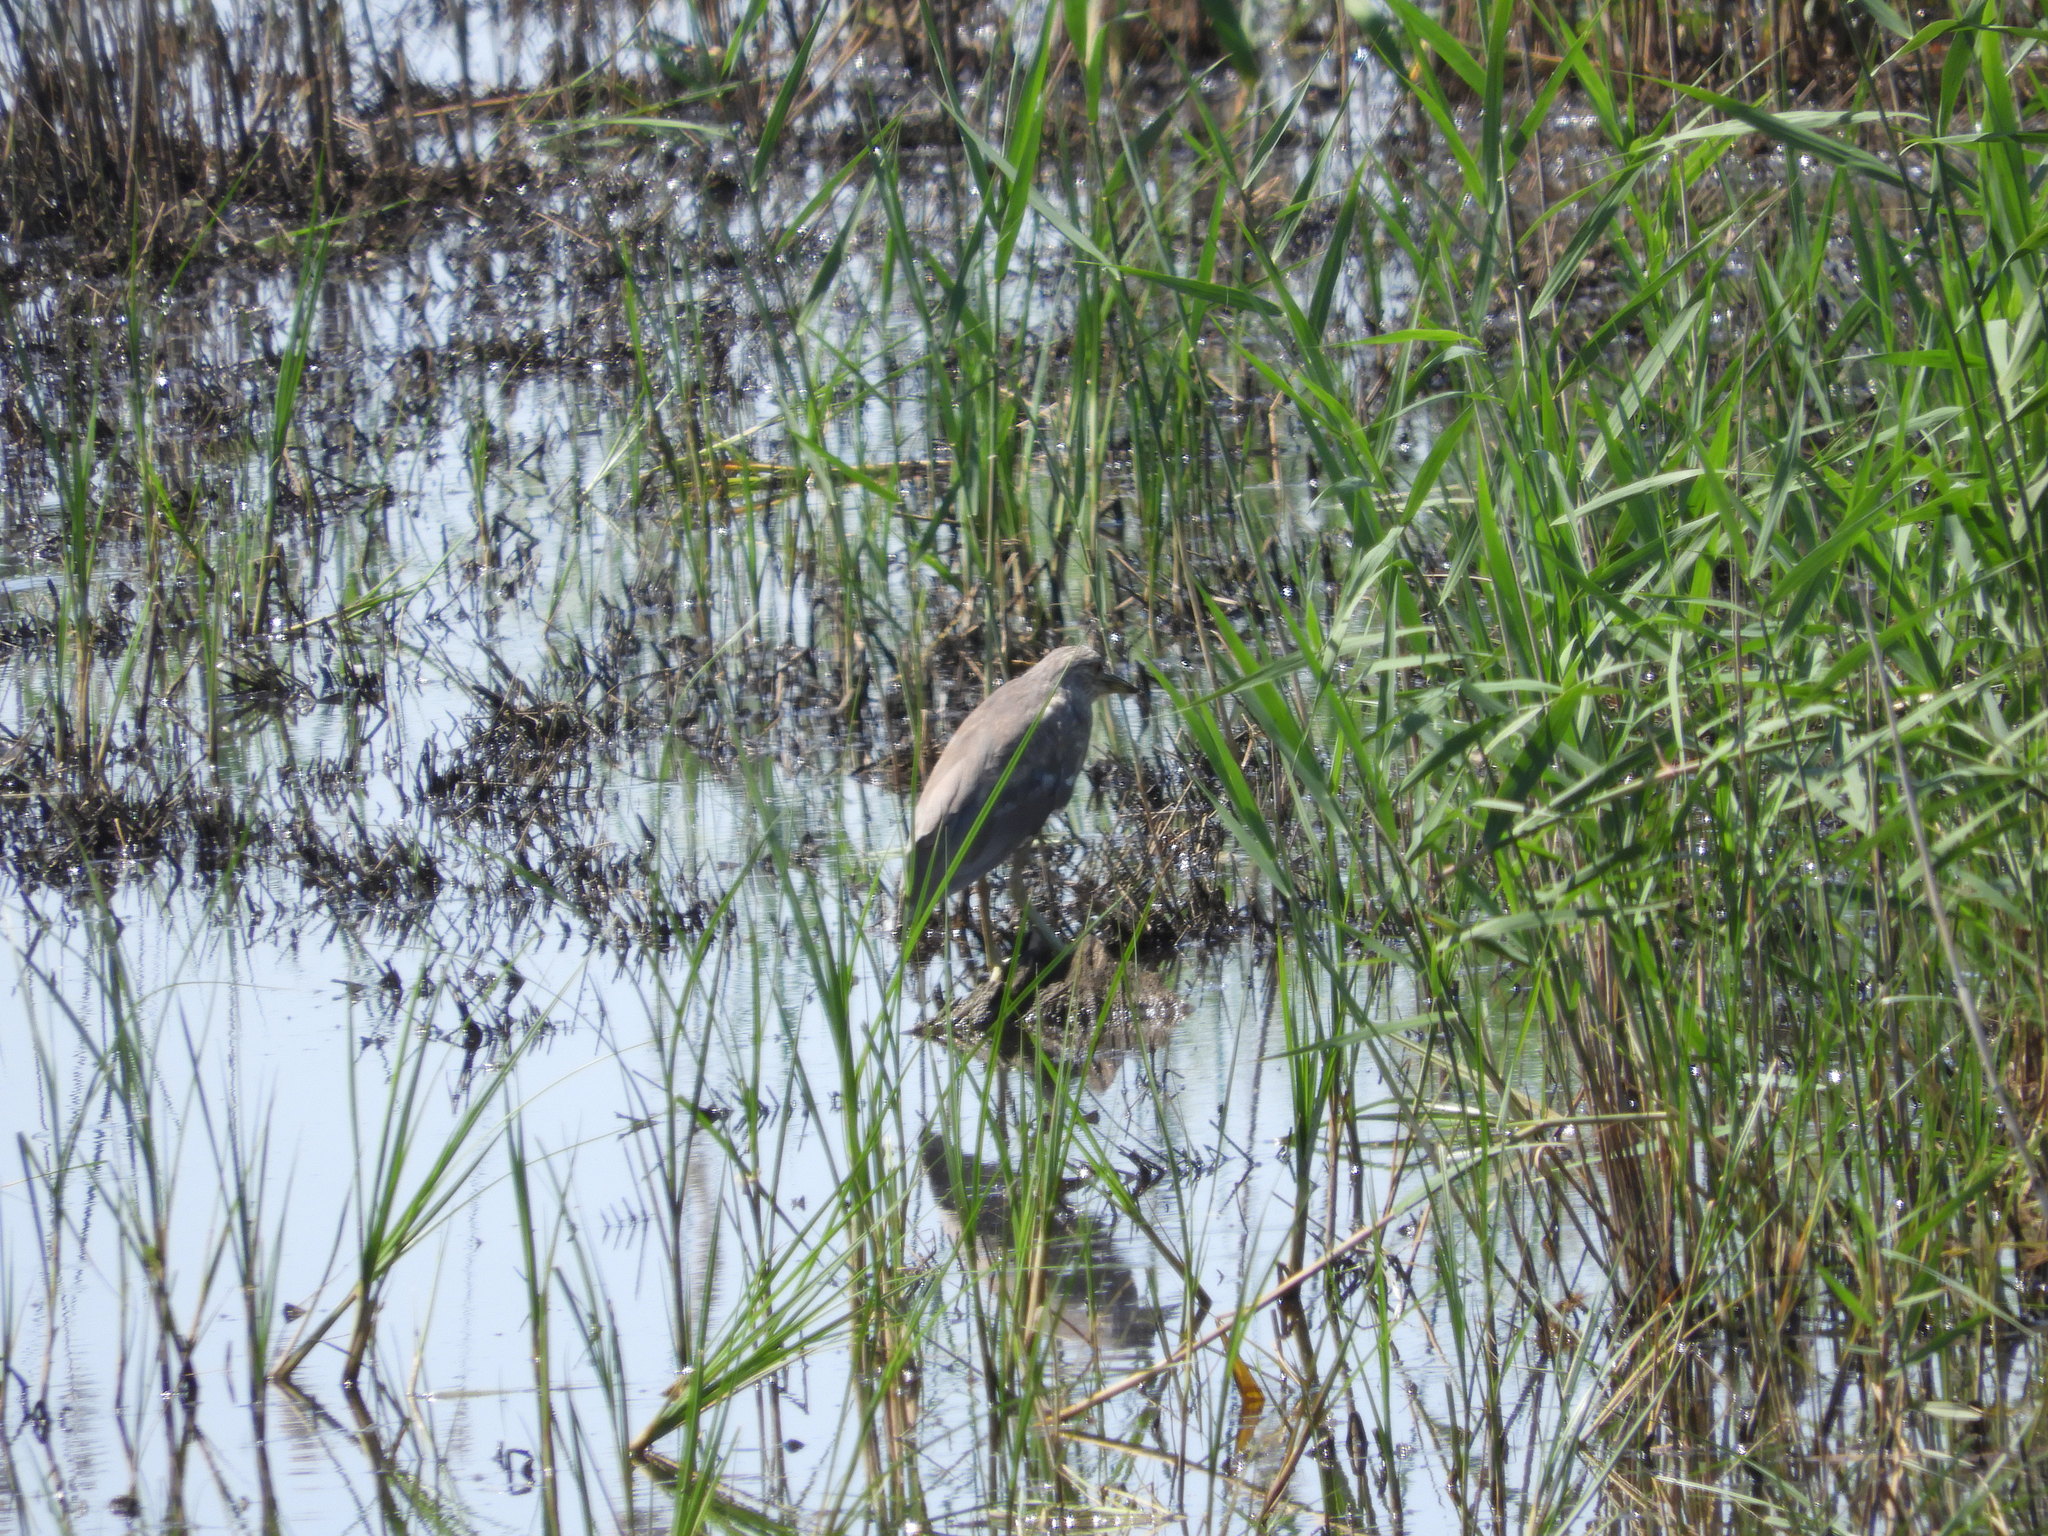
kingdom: Animalia
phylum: Chordata
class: Aves
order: Pelecaniformes
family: Ardeidae
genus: Nycticorax
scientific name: Nycticorax nycticorax
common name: Black-crowned night heron
